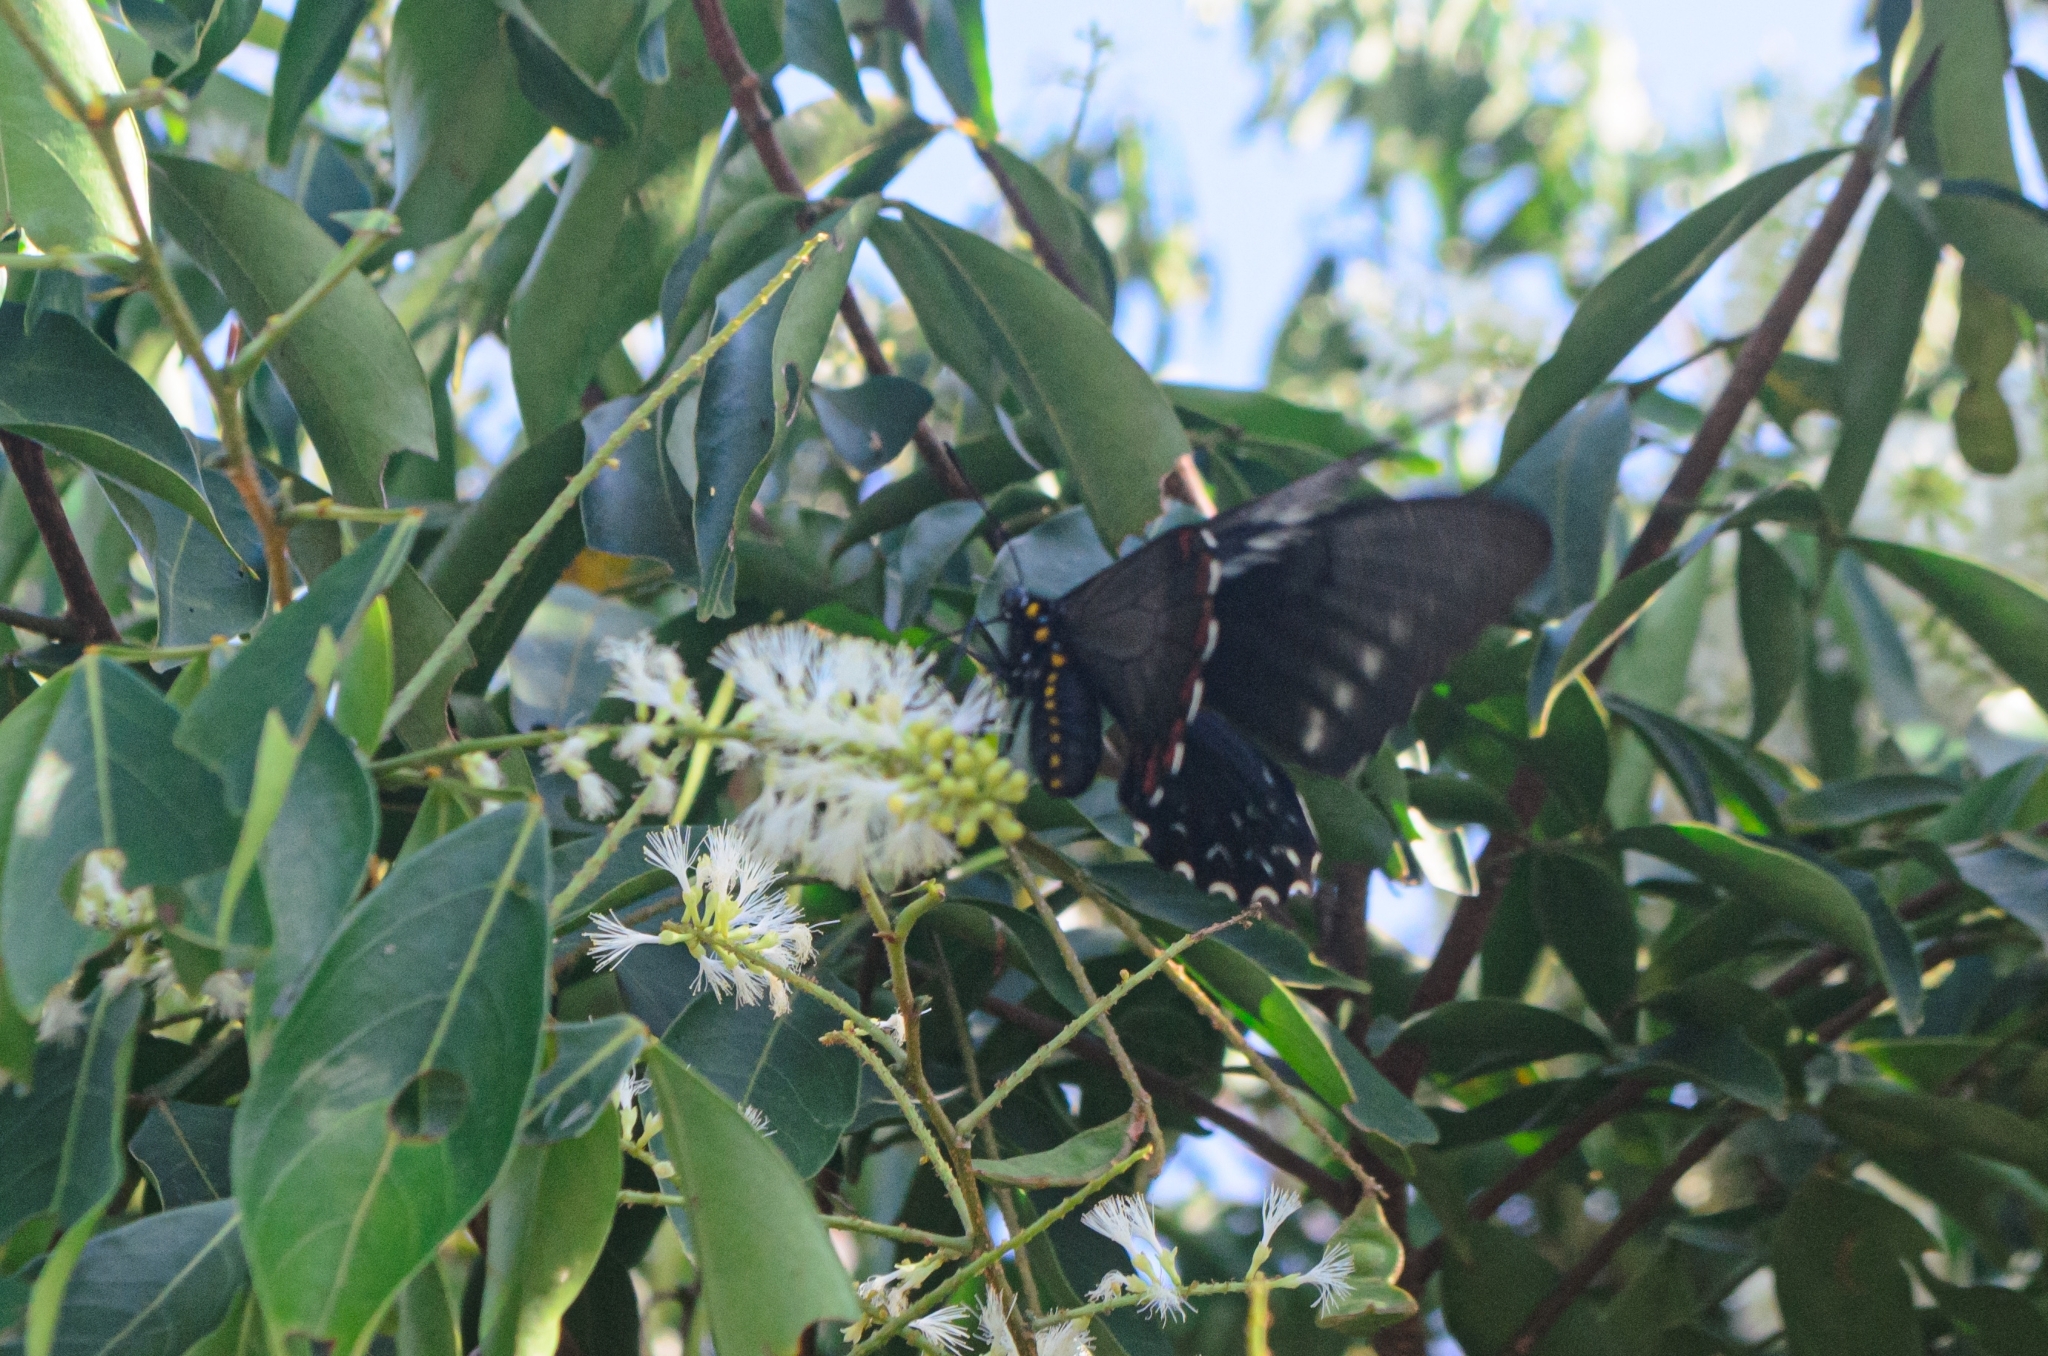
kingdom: Animalia
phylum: Arthropoda
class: Insecta
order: Lepidoptera
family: Papilionidae
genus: Battus
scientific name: Battus polystictus
